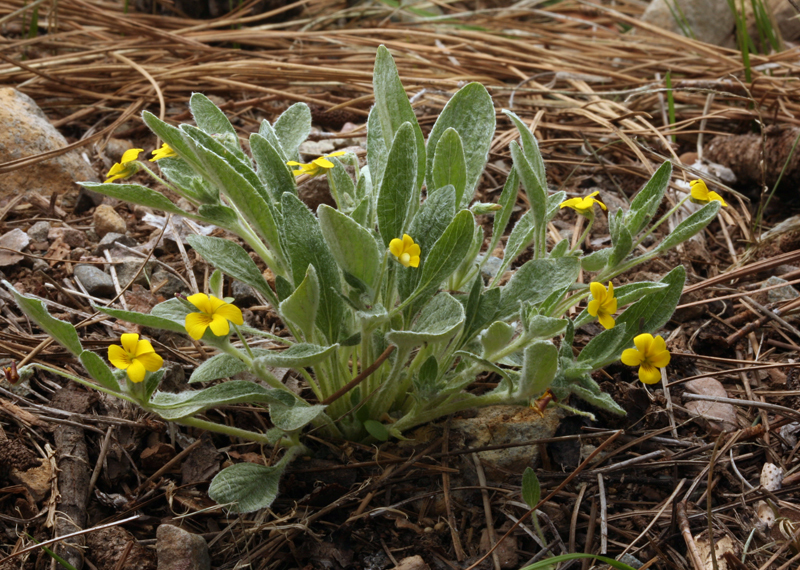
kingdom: Plantae
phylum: Tracheophyta
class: Magnoliopsida
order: Malpighiales
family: Violaceae
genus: Viola
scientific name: Viola tomentosa
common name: Woolly violet
